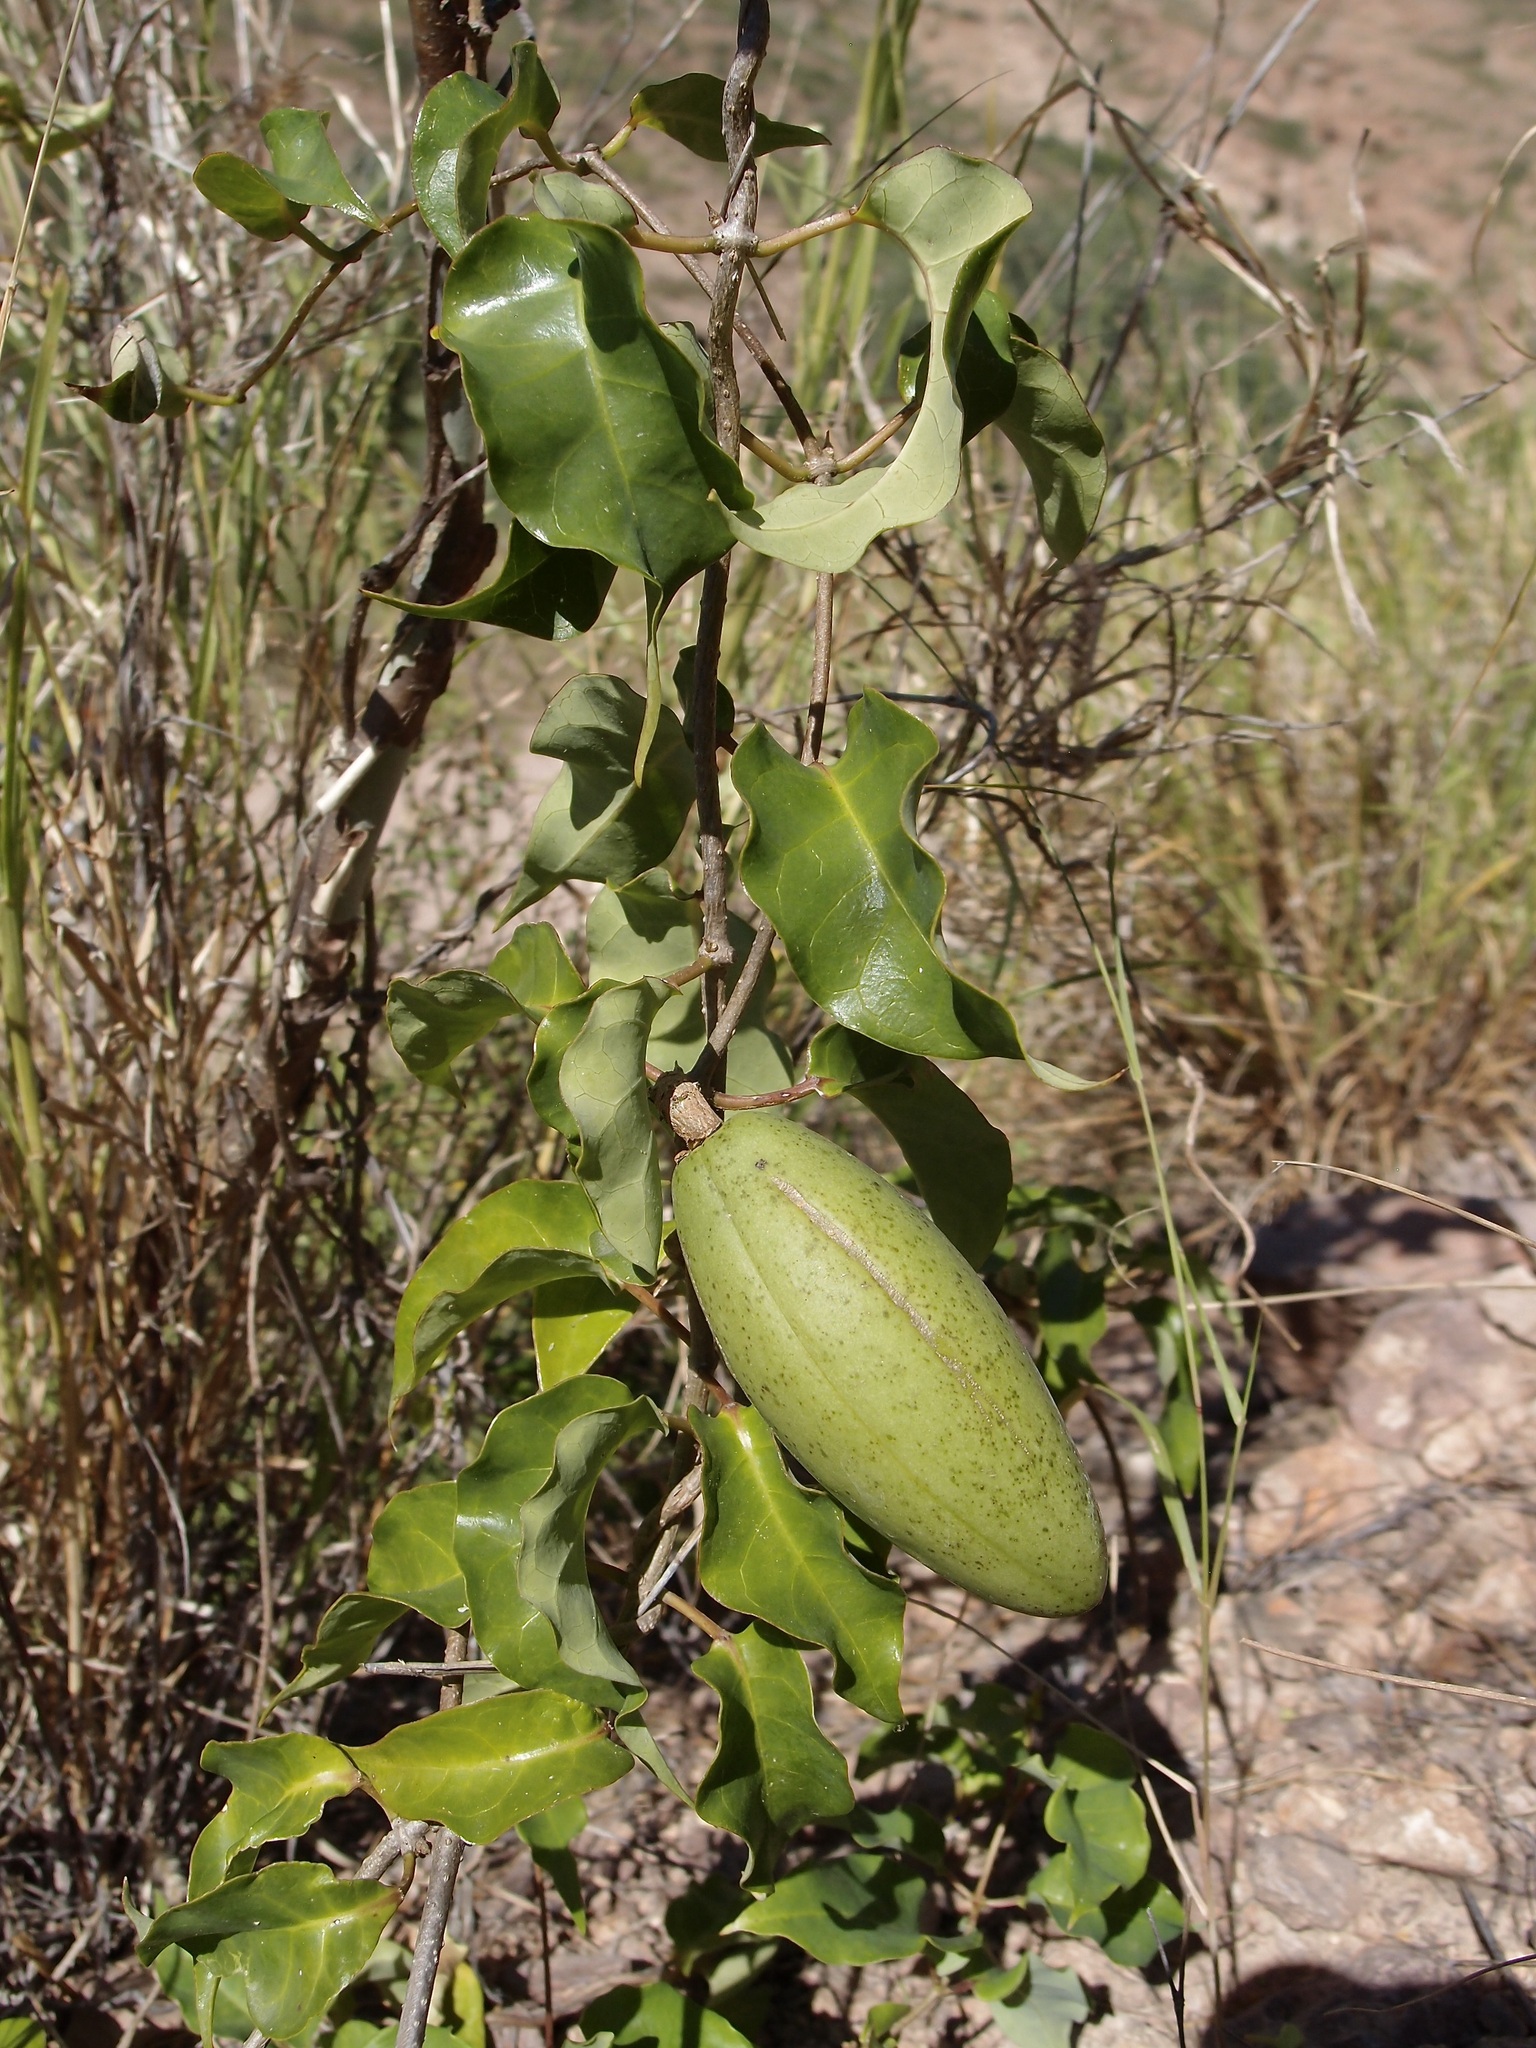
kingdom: Plantae
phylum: Tracheophyta
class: Magnoliopsida
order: Gentianales
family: Apocynaceae
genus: Ruehssia
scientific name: Ruehssia edulis
